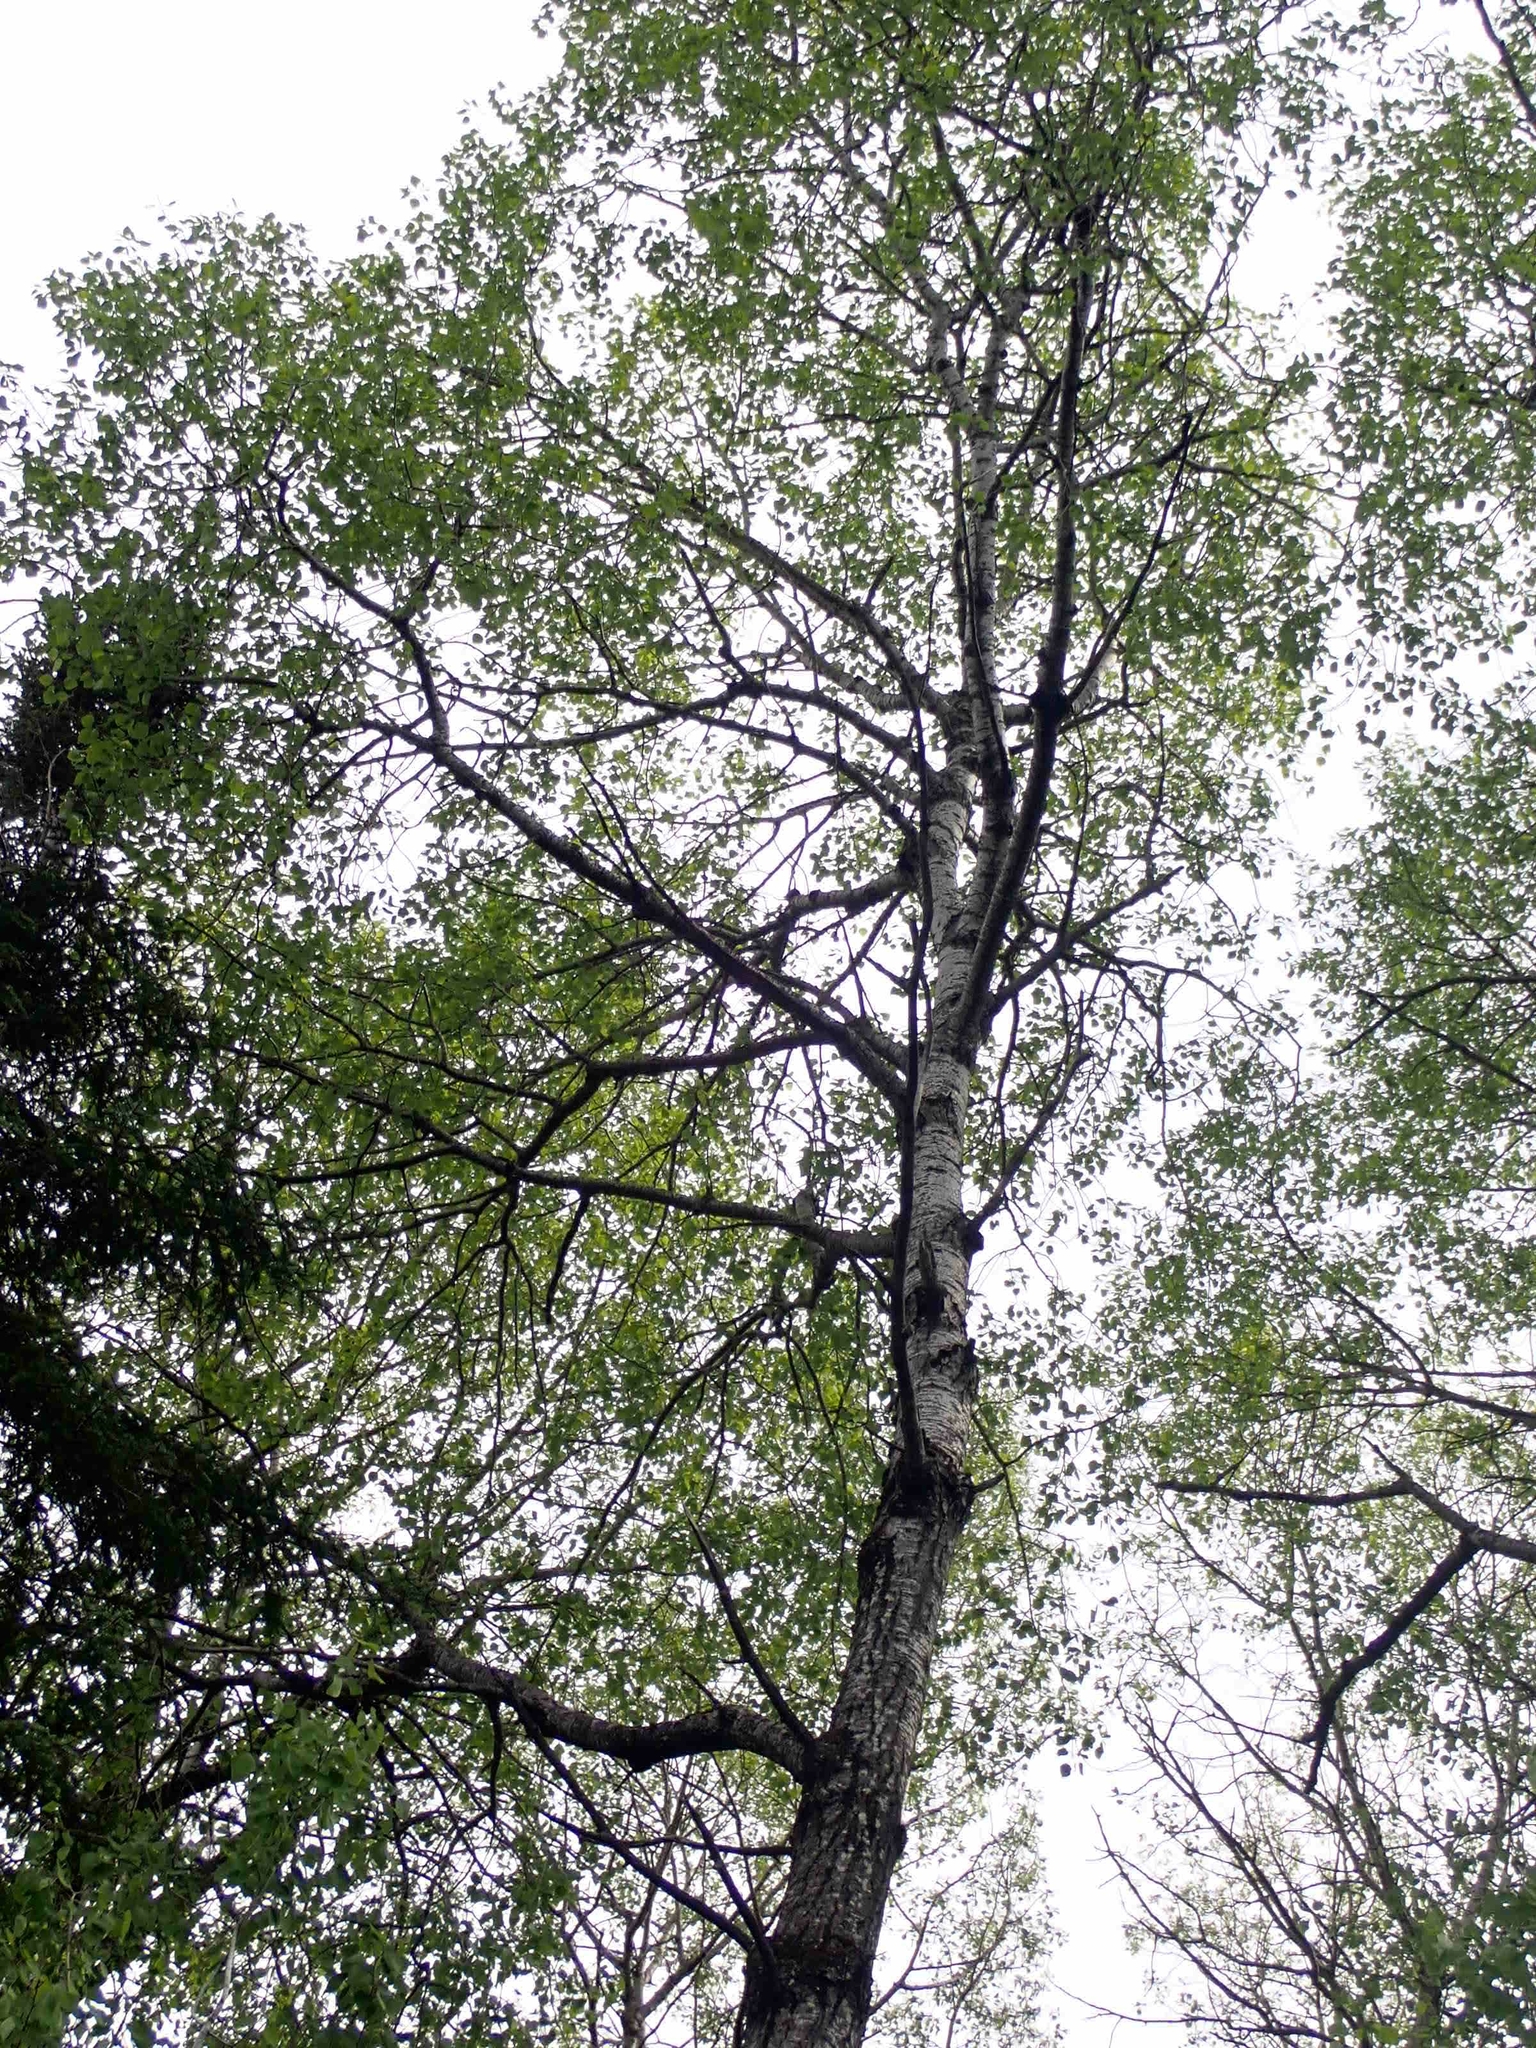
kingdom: Plantae
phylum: Tracheophyta
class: Magnoliopsida
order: Malpighiales
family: Salicaceae
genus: Populus
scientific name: Populus tremuloides
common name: Quaking aspen
